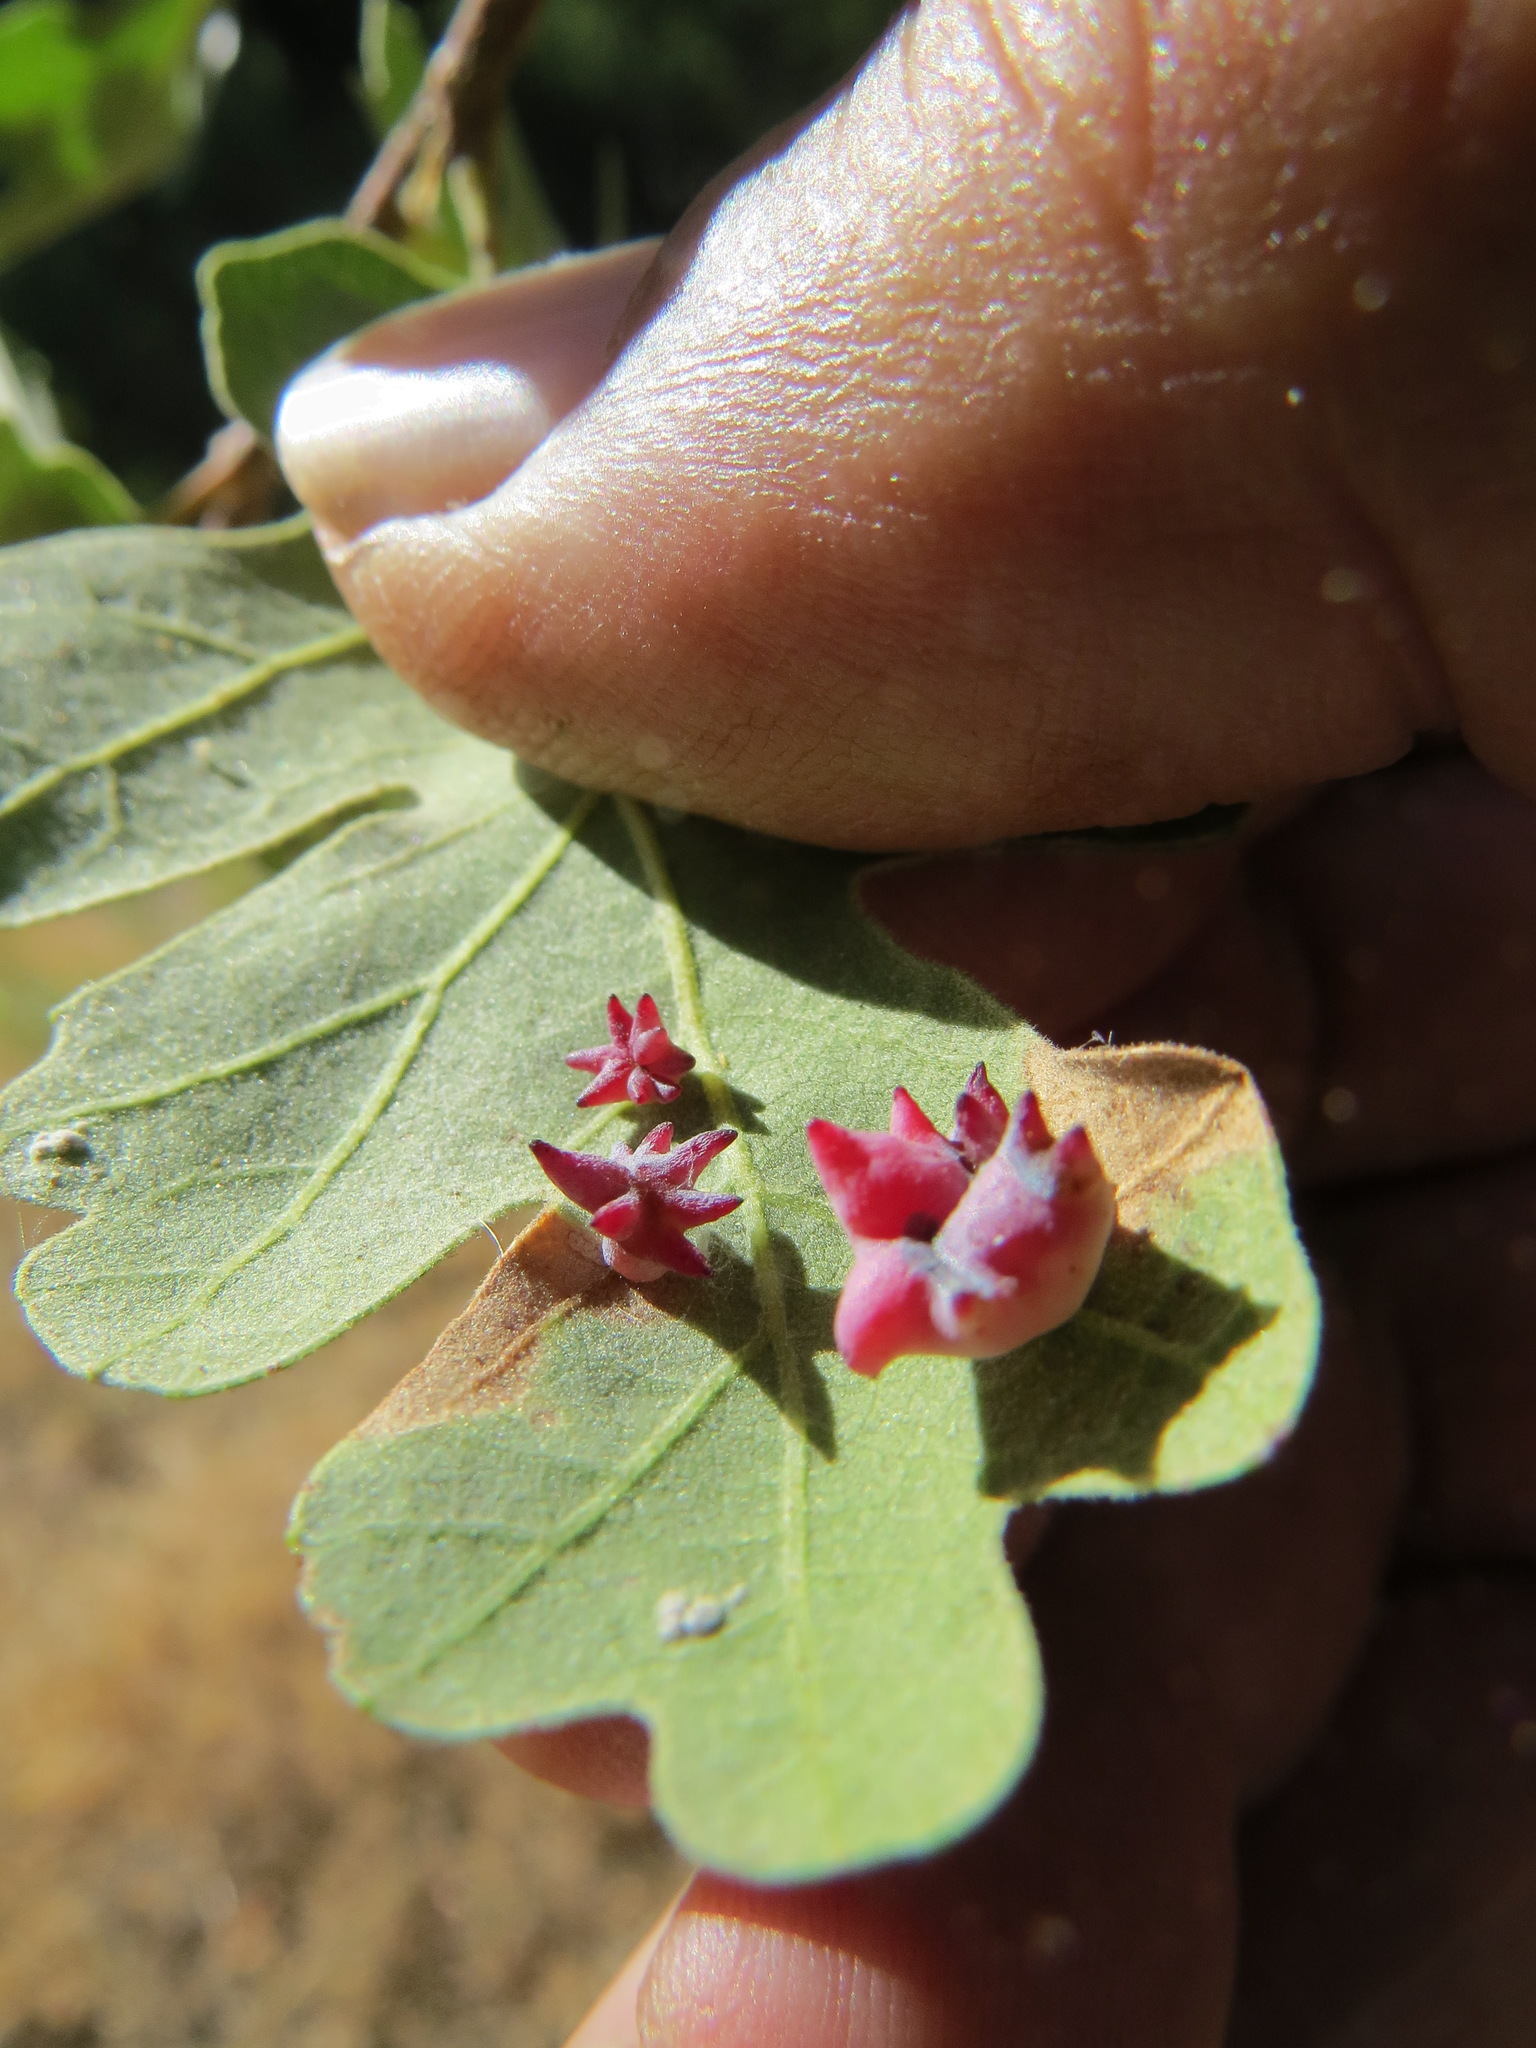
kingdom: Animalia
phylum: Arthropoda
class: Insecta
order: Hymenoptera
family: Cynipidae
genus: Cynips
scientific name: Cynips douglasi
